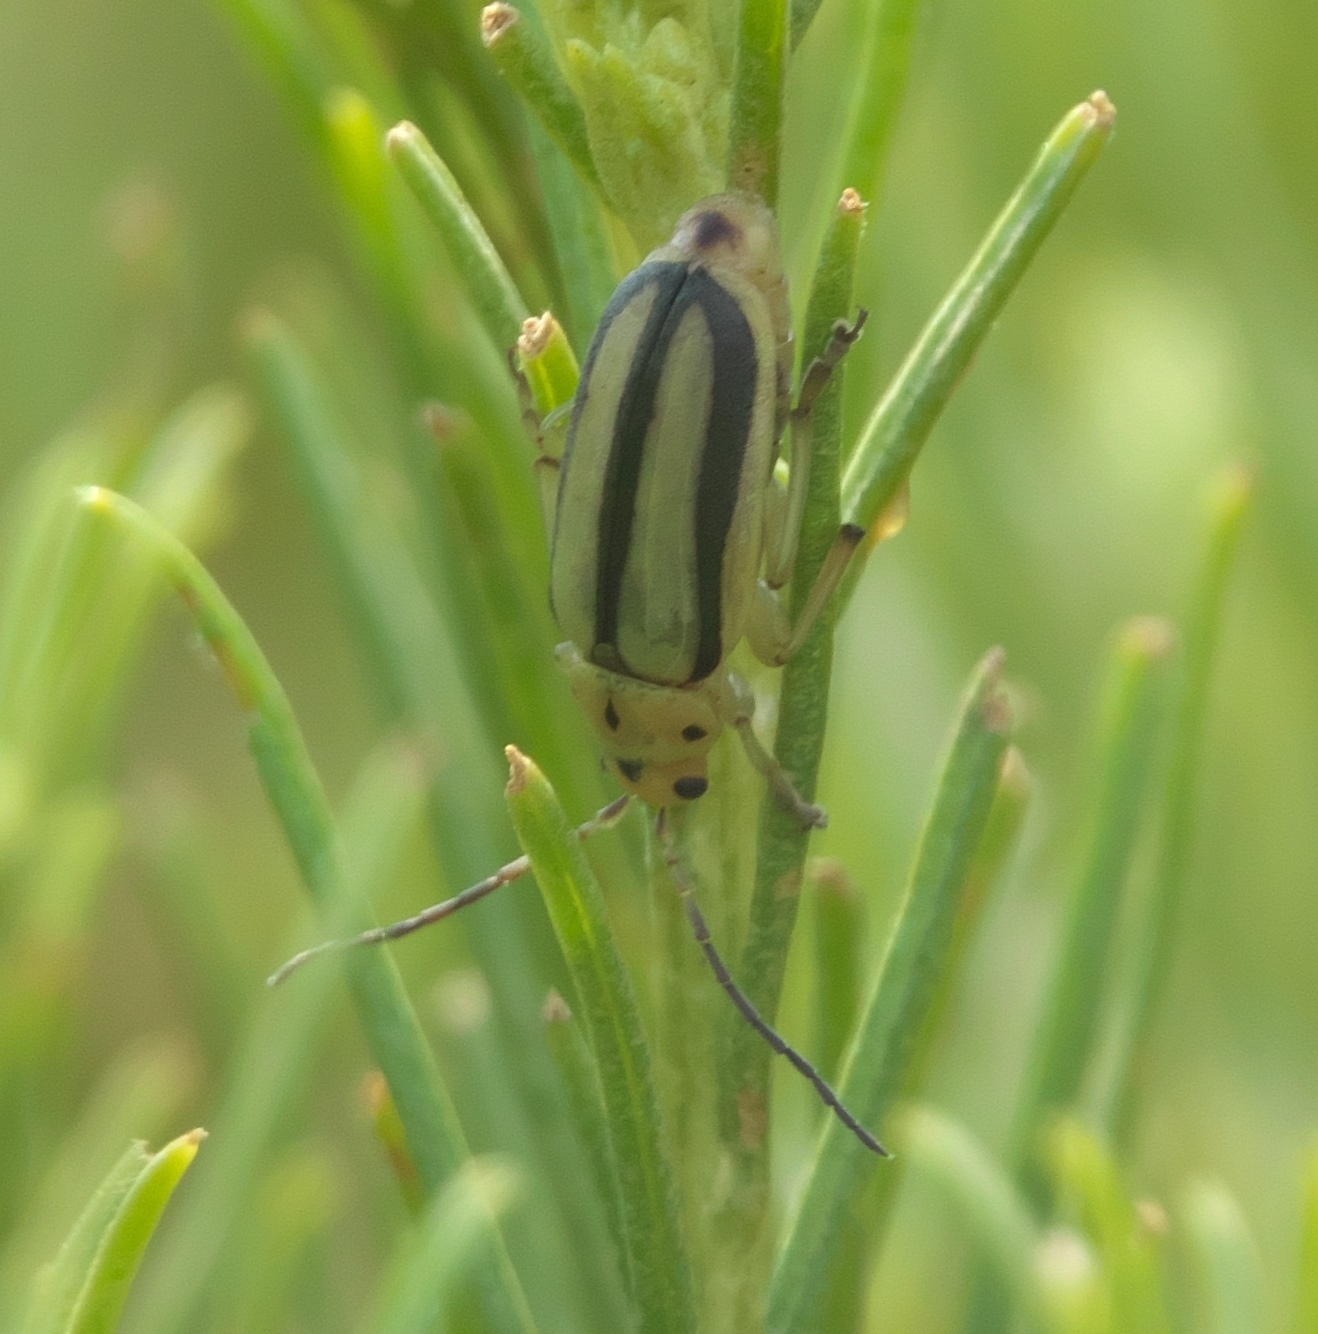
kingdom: Animalia
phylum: Arthropoda
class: Insecta
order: Coleoptera
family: Chrysomelidae
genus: Trirhabda
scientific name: Trirhabda nitidicollis
